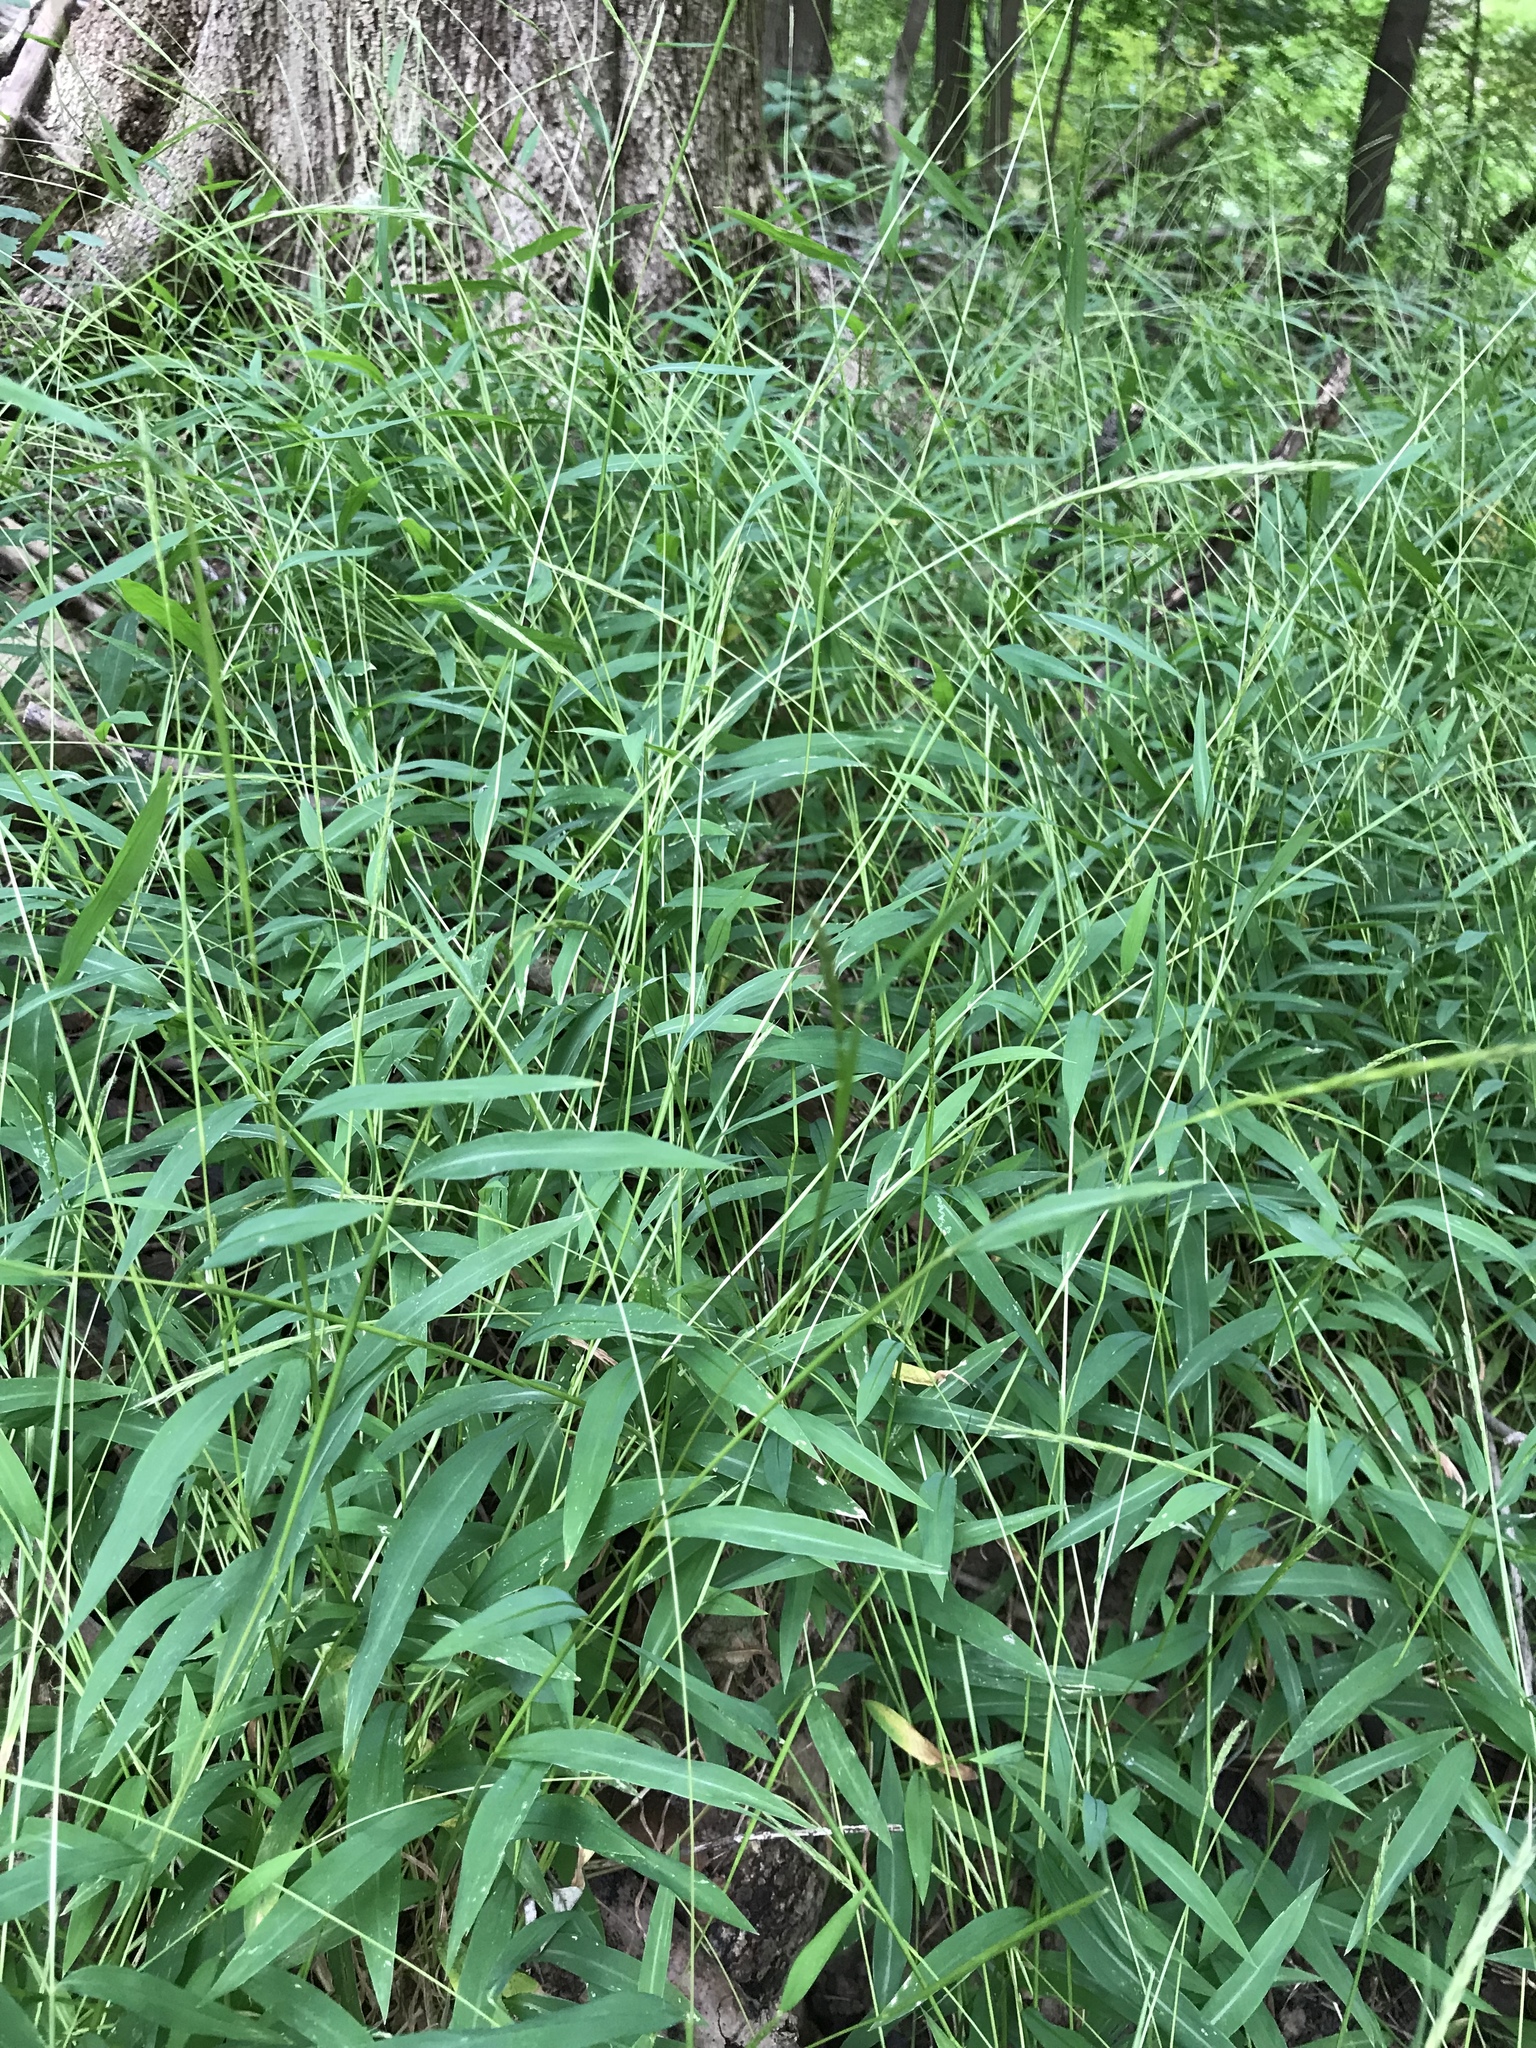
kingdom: Plantae
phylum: Tracheophyta
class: Liliopsida
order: Poales
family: Poaceae
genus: Microstegium
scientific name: Microstegium vimineum
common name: Japanese stiltgrass
